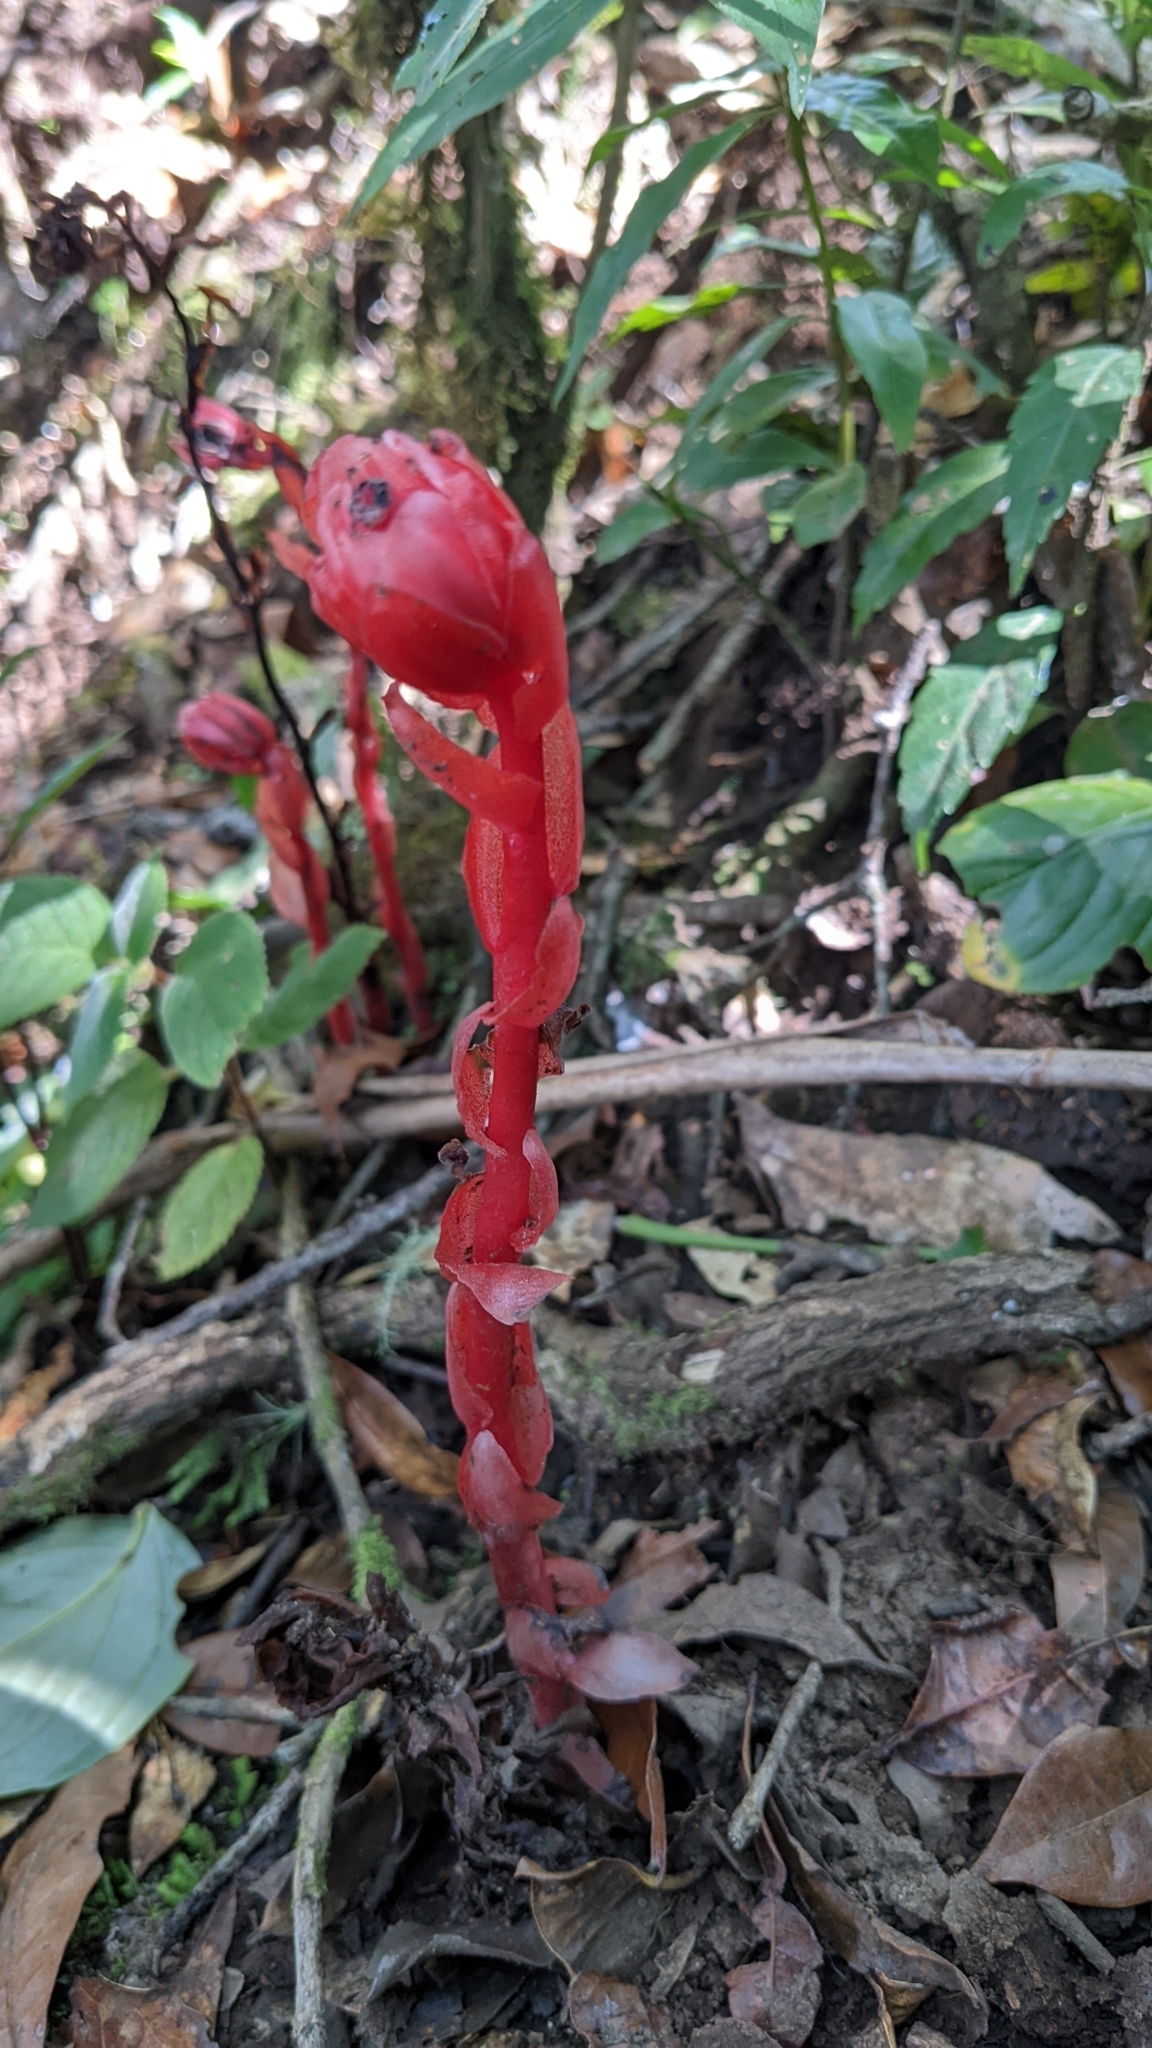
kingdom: Plantae
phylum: Tracheophyta
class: Magnoliopsida
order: Ericales
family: Ericaceae
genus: Monotropa
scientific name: Monotropa coccinea
